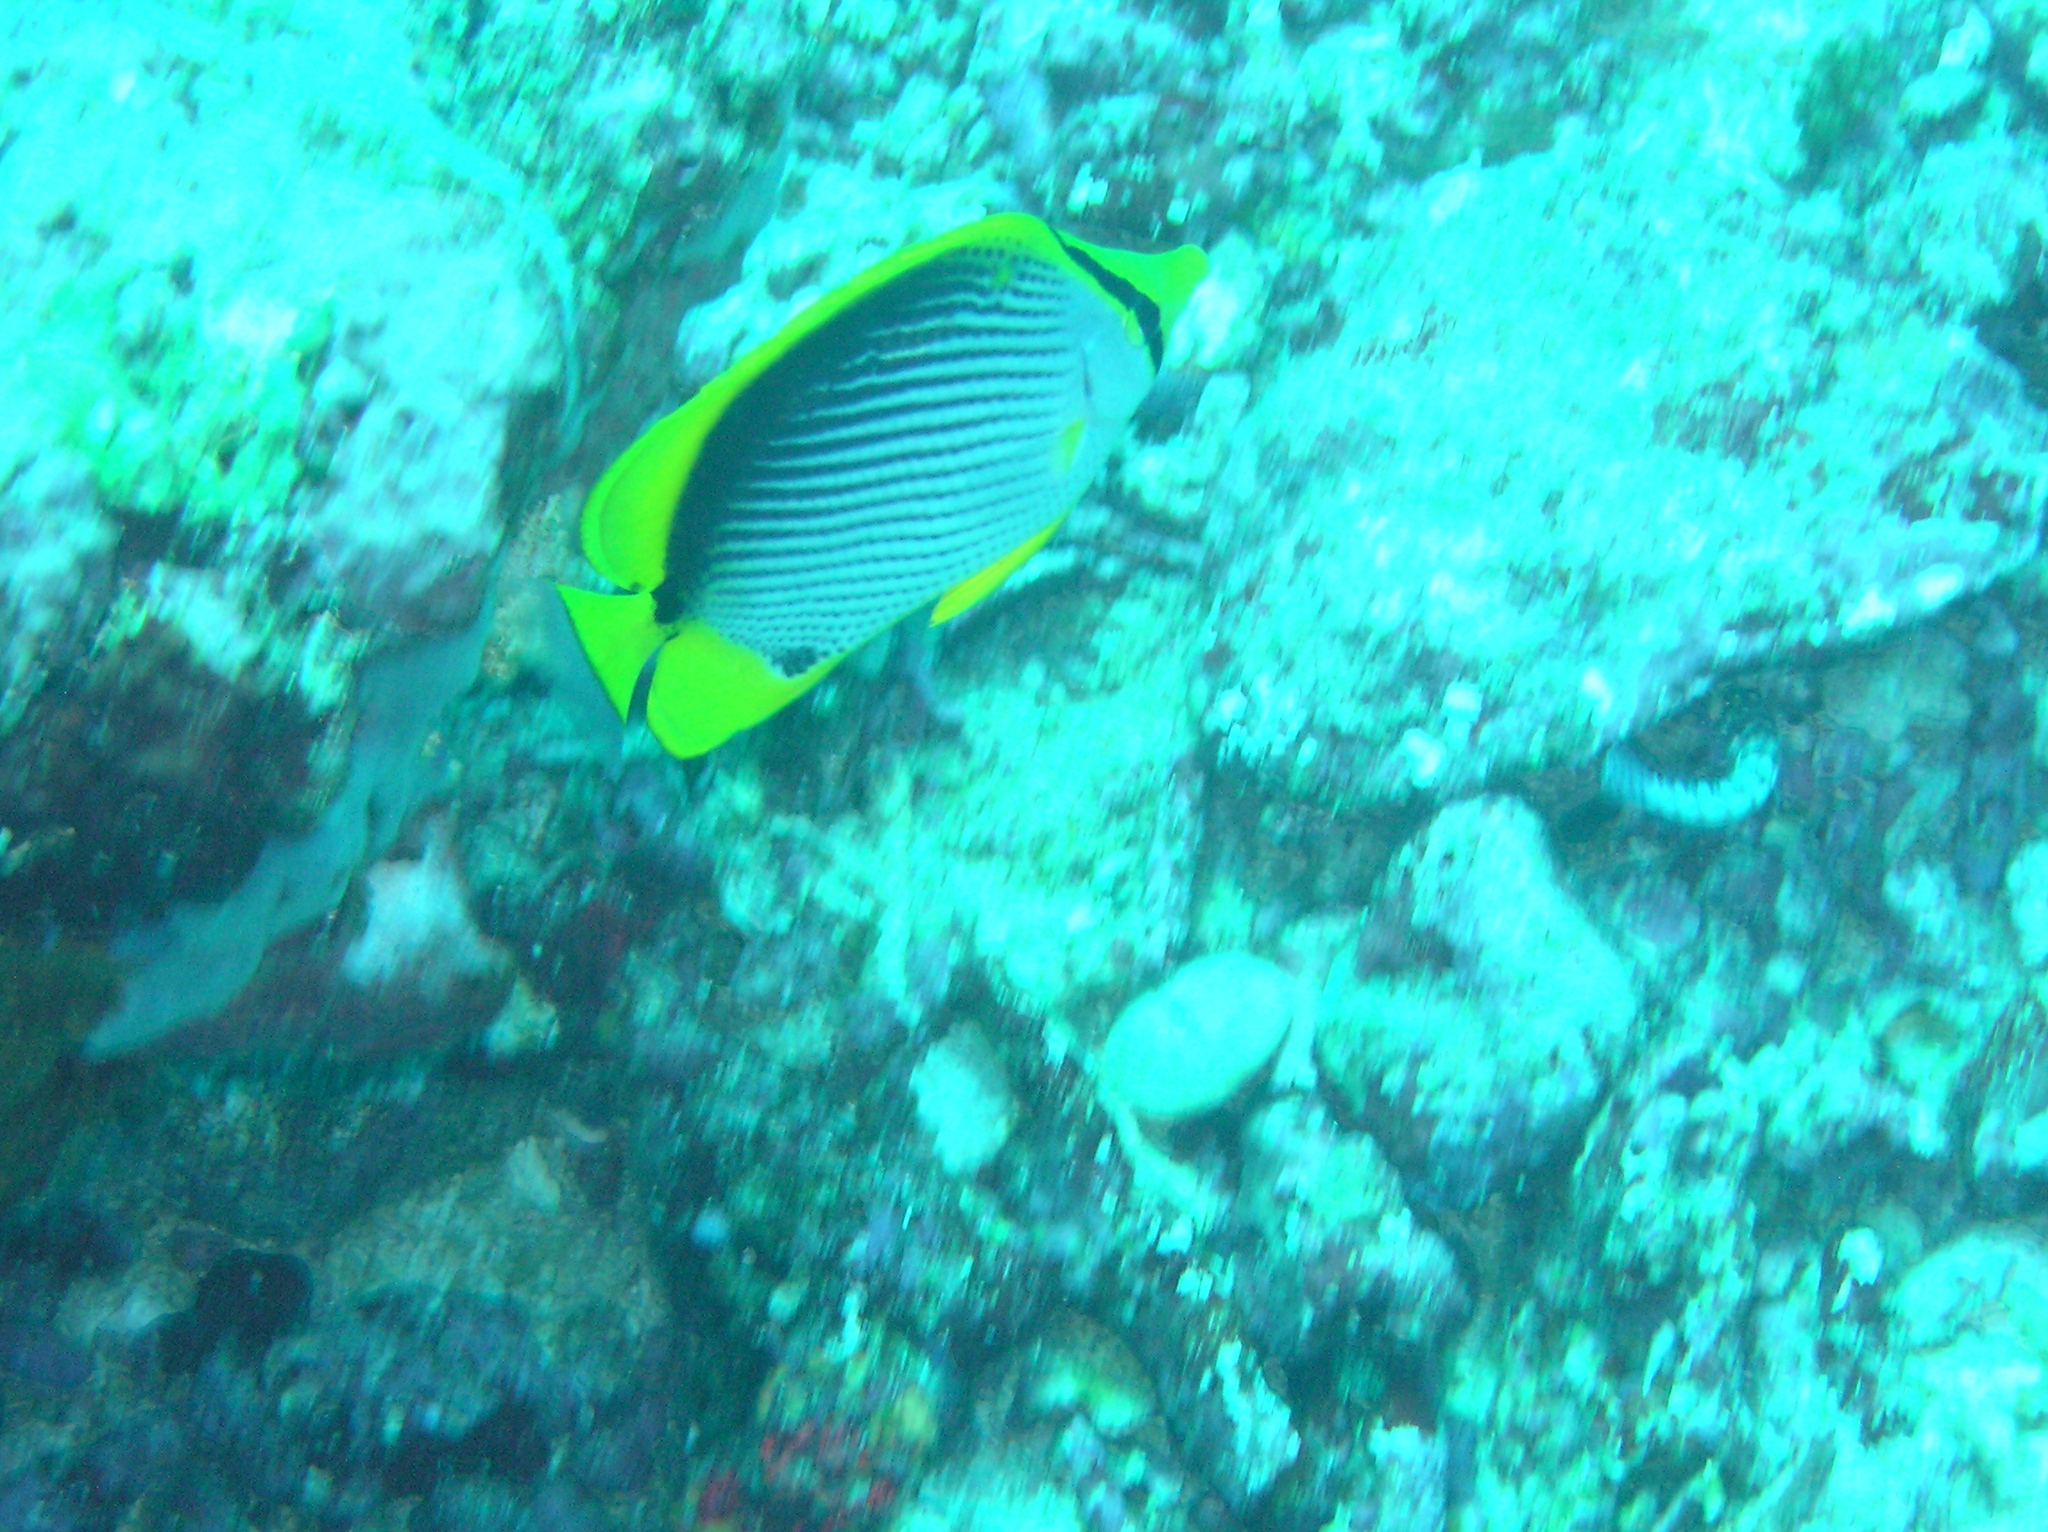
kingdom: Animalia
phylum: Chordata
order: Perciformes
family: Chaetodontidae
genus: Chaetodon
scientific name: Chaetodon melannotus
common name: Blackback butterflyfish
